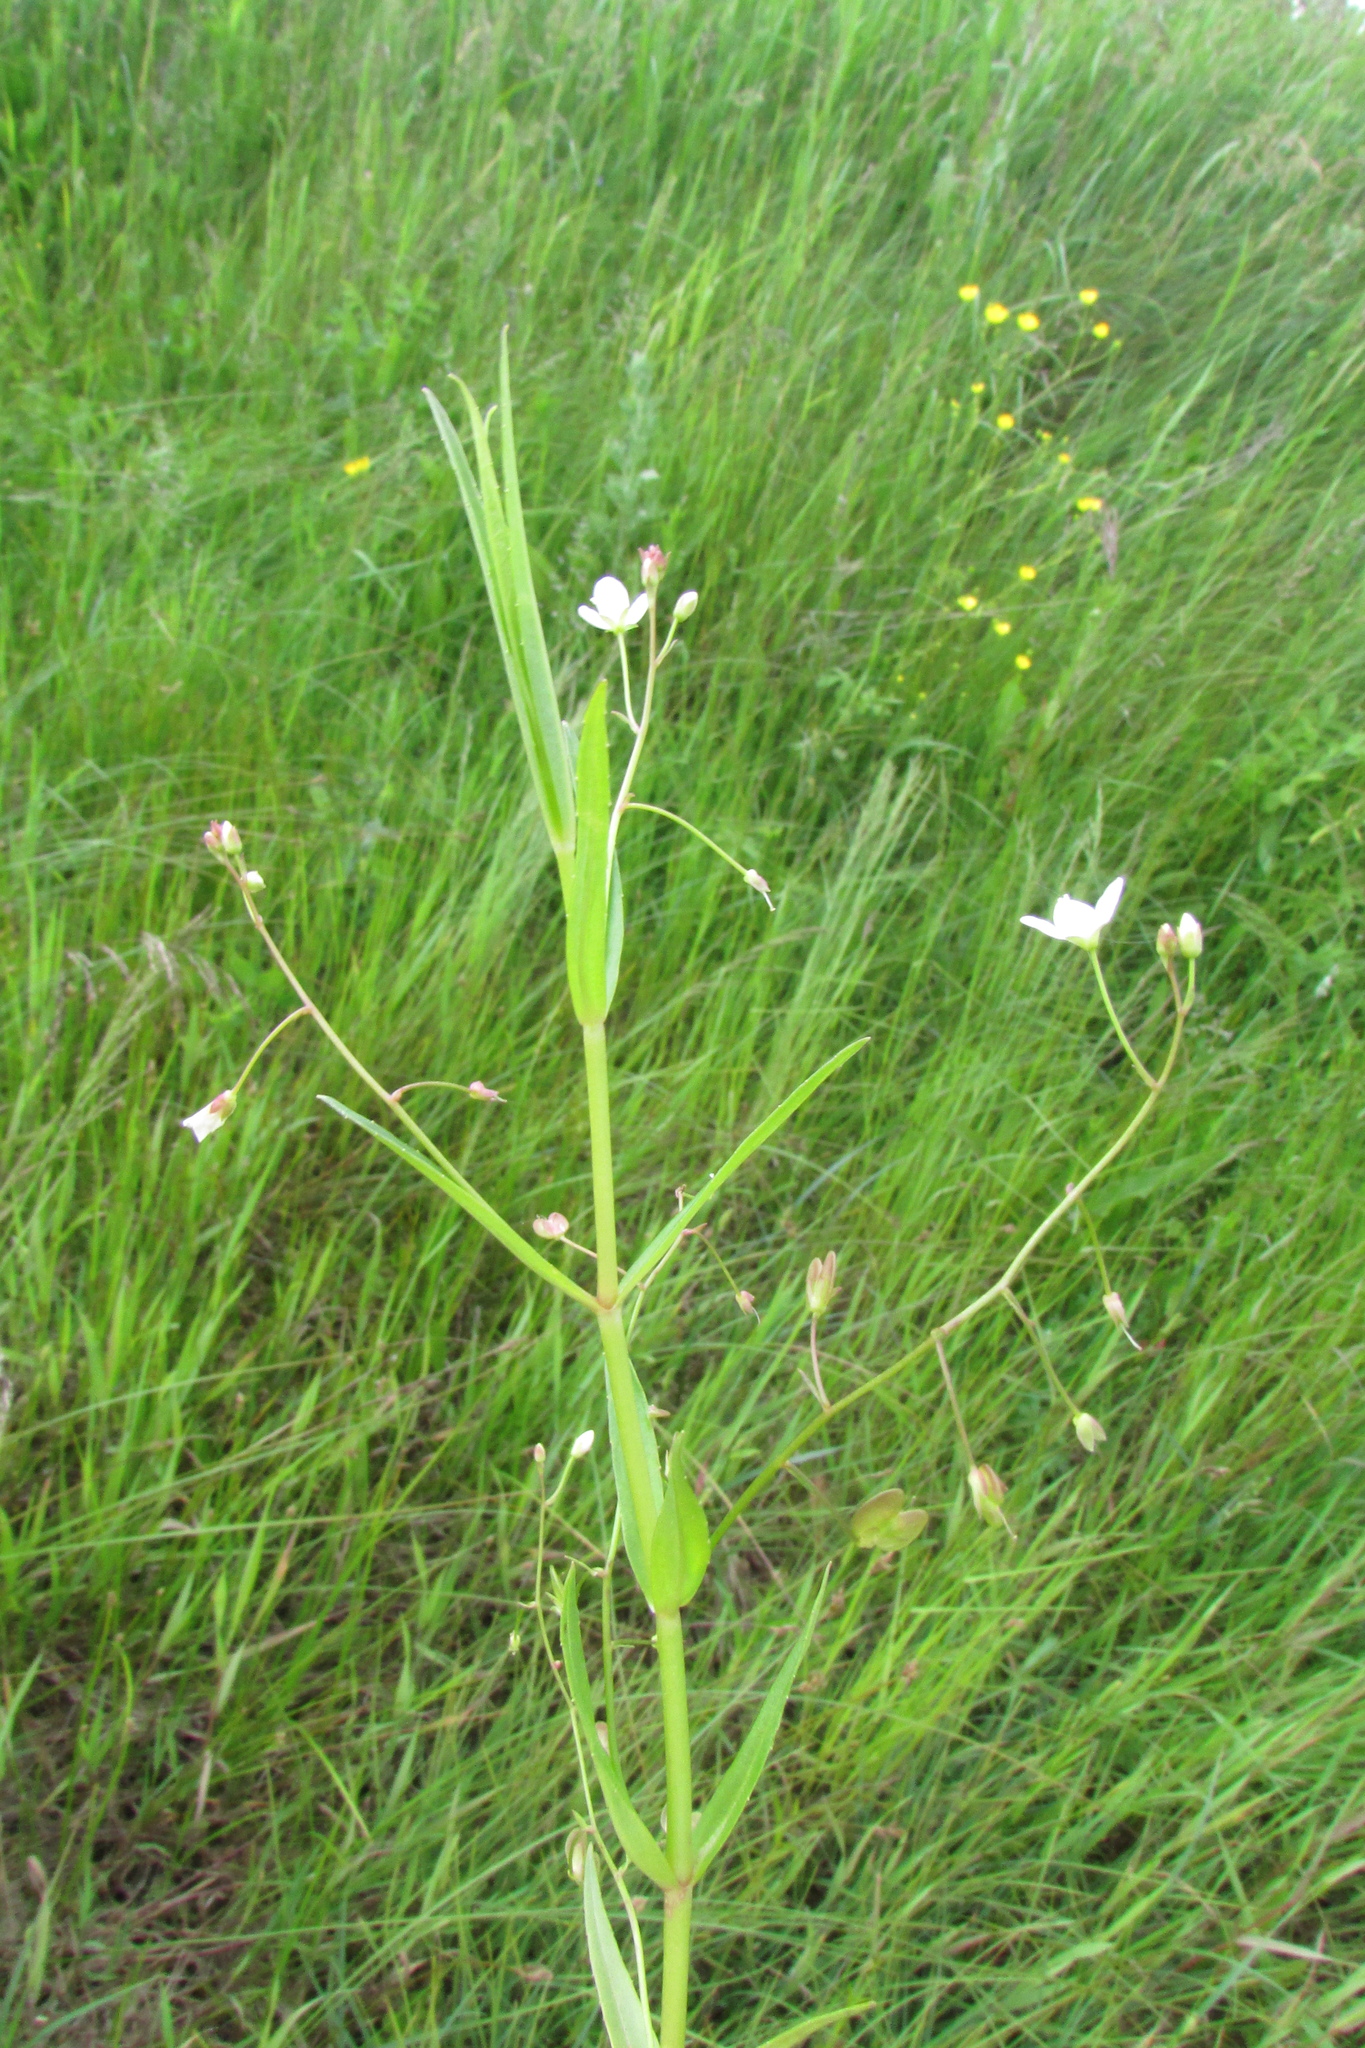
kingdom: Plantae
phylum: Tracheophyta
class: Magnoliopsida
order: Lamiales
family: Plantaginaceae
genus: Veronica
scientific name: Veronica scutellata
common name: Marsh speedwell
